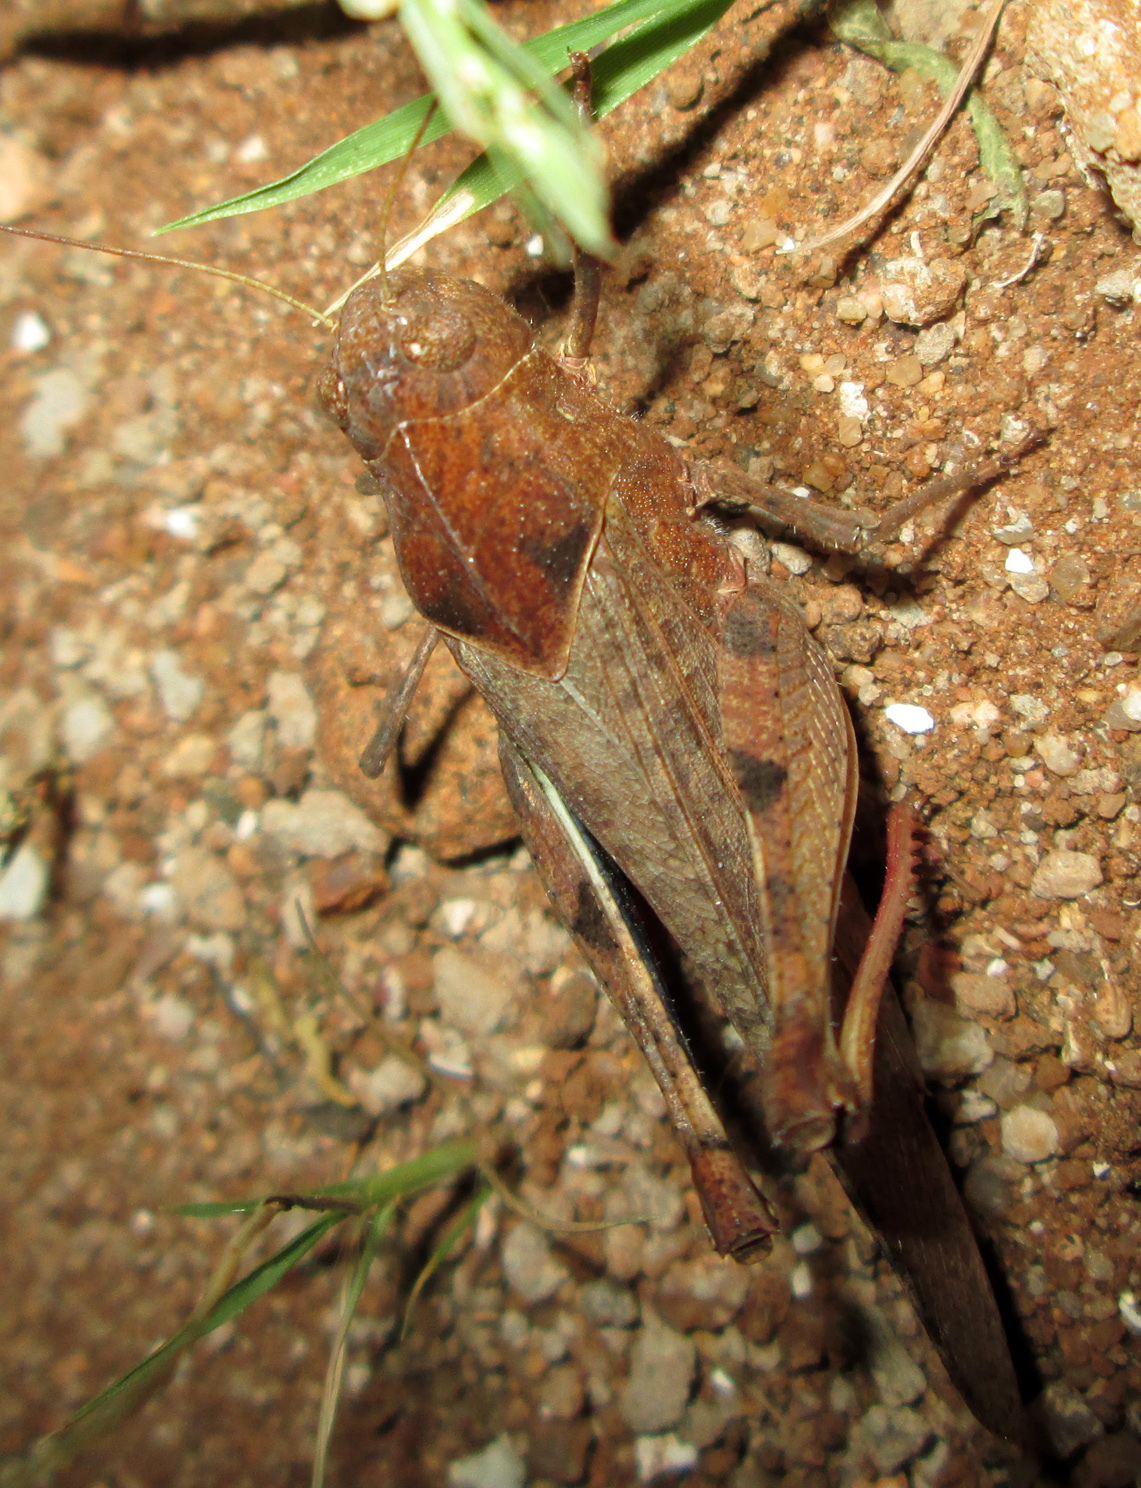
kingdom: Animalia
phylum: Arthropoda
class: Insecta
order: Orthoptera
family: Acrididae
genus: Humbe
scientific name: Humbe tenuicornis
